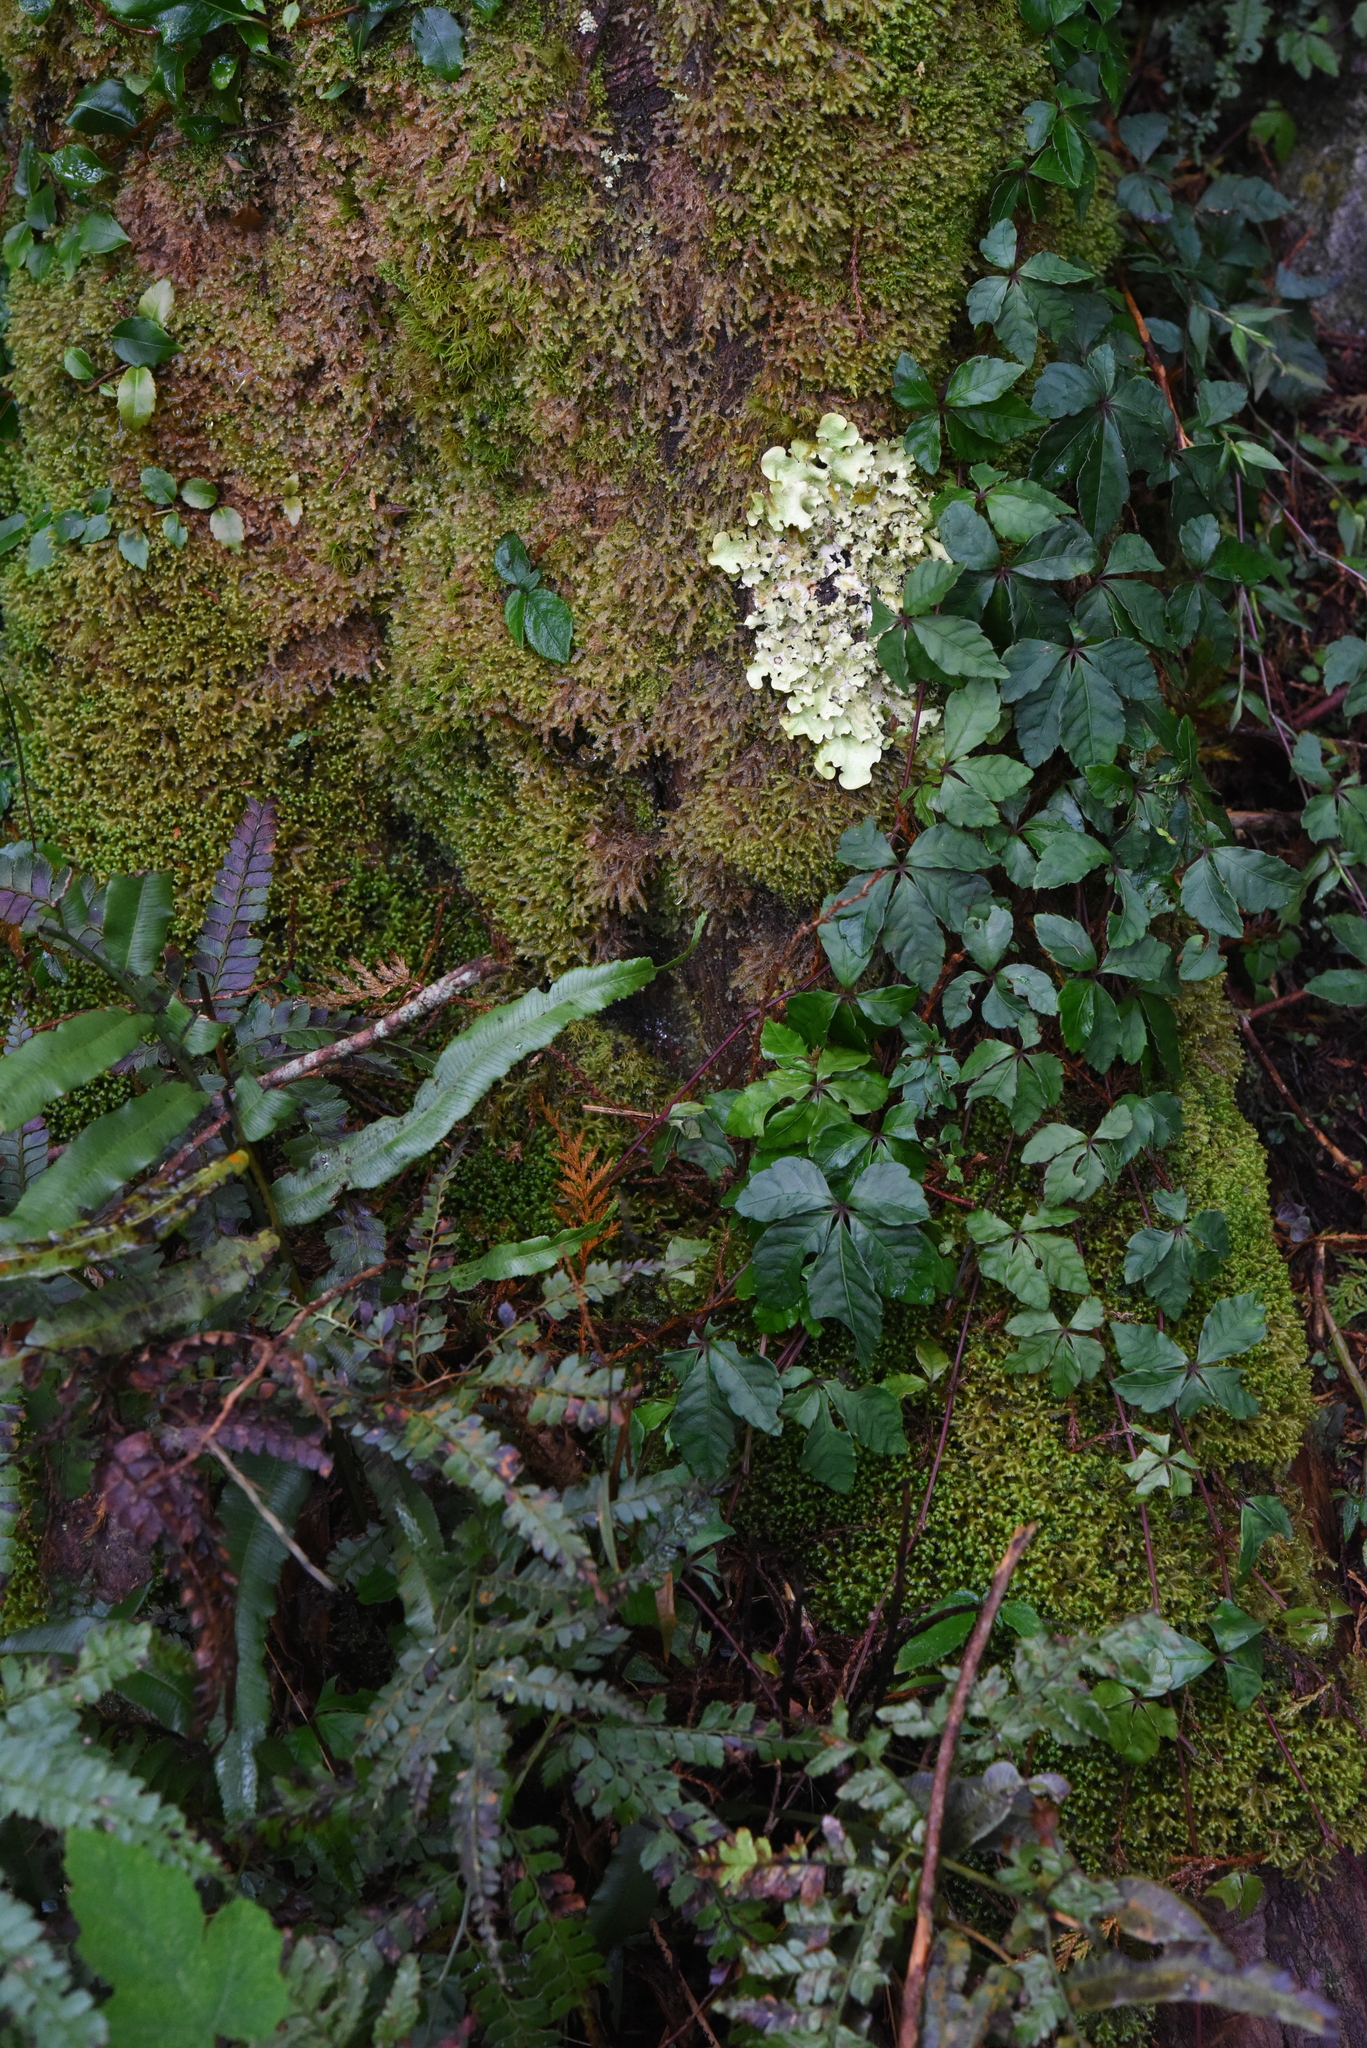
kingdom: Plantae
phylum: Tracheophyta
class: Magnoliopsida
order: Vitales
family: Vitaceae
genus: Tetrastigma
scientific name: Tetrastigma obtectum
